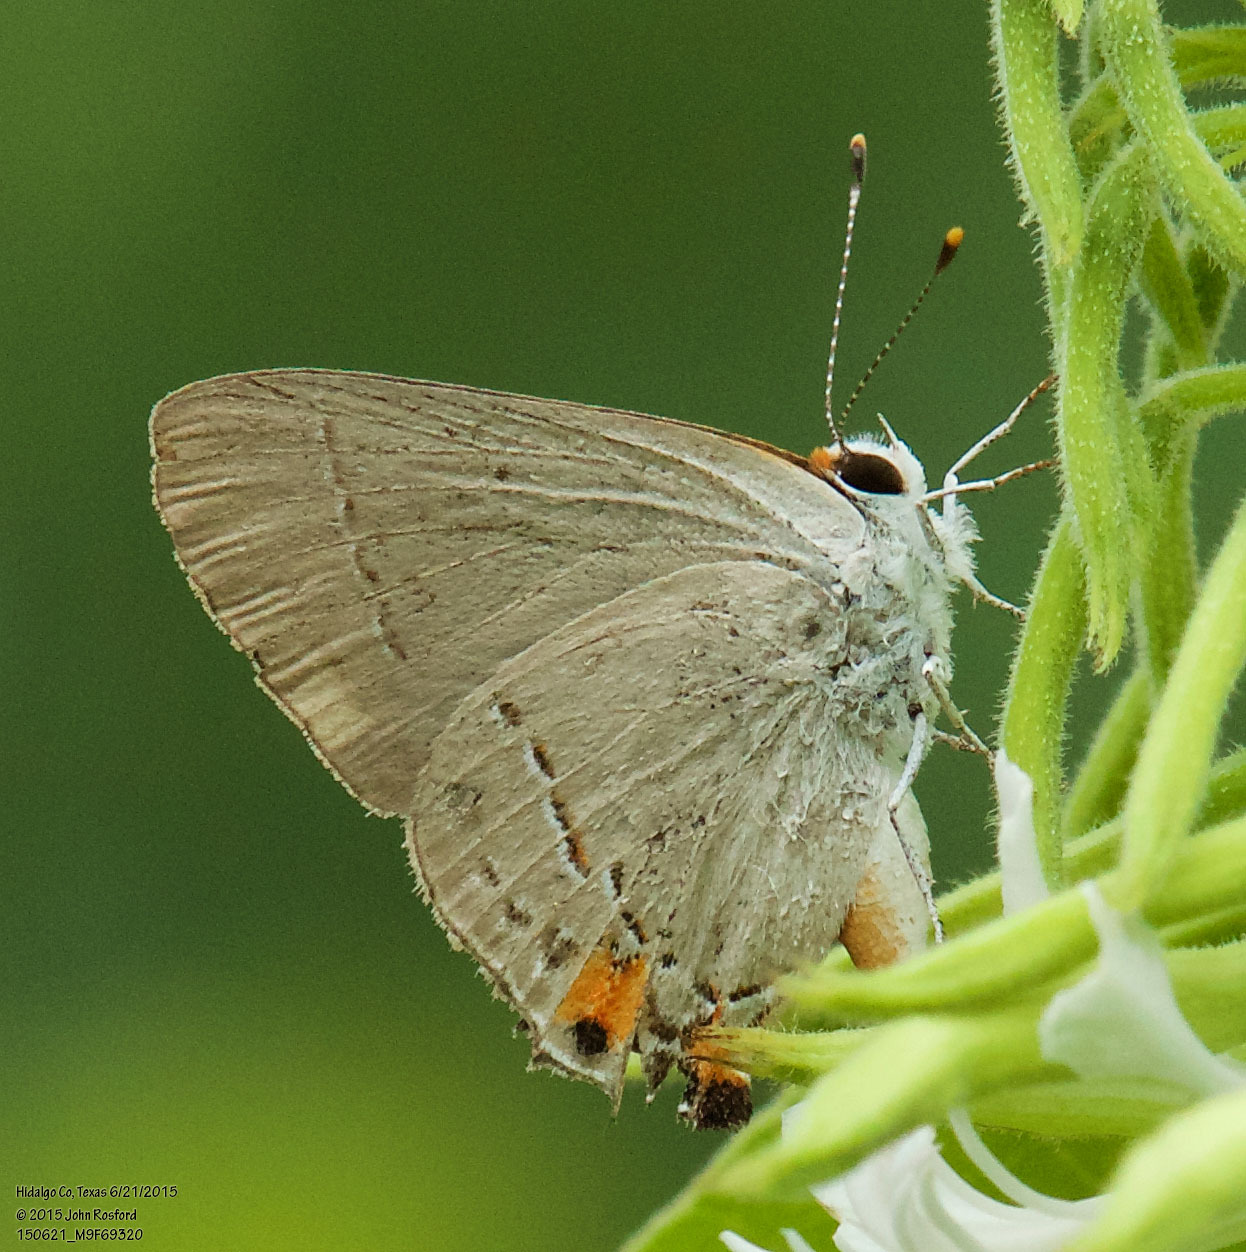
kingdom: Animalia
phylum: Arthropoda
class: Insecta
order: Lepidoptera
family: Lycaenidae
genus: Strymon
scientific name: Strymon melinus
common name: Gray hairstreak
